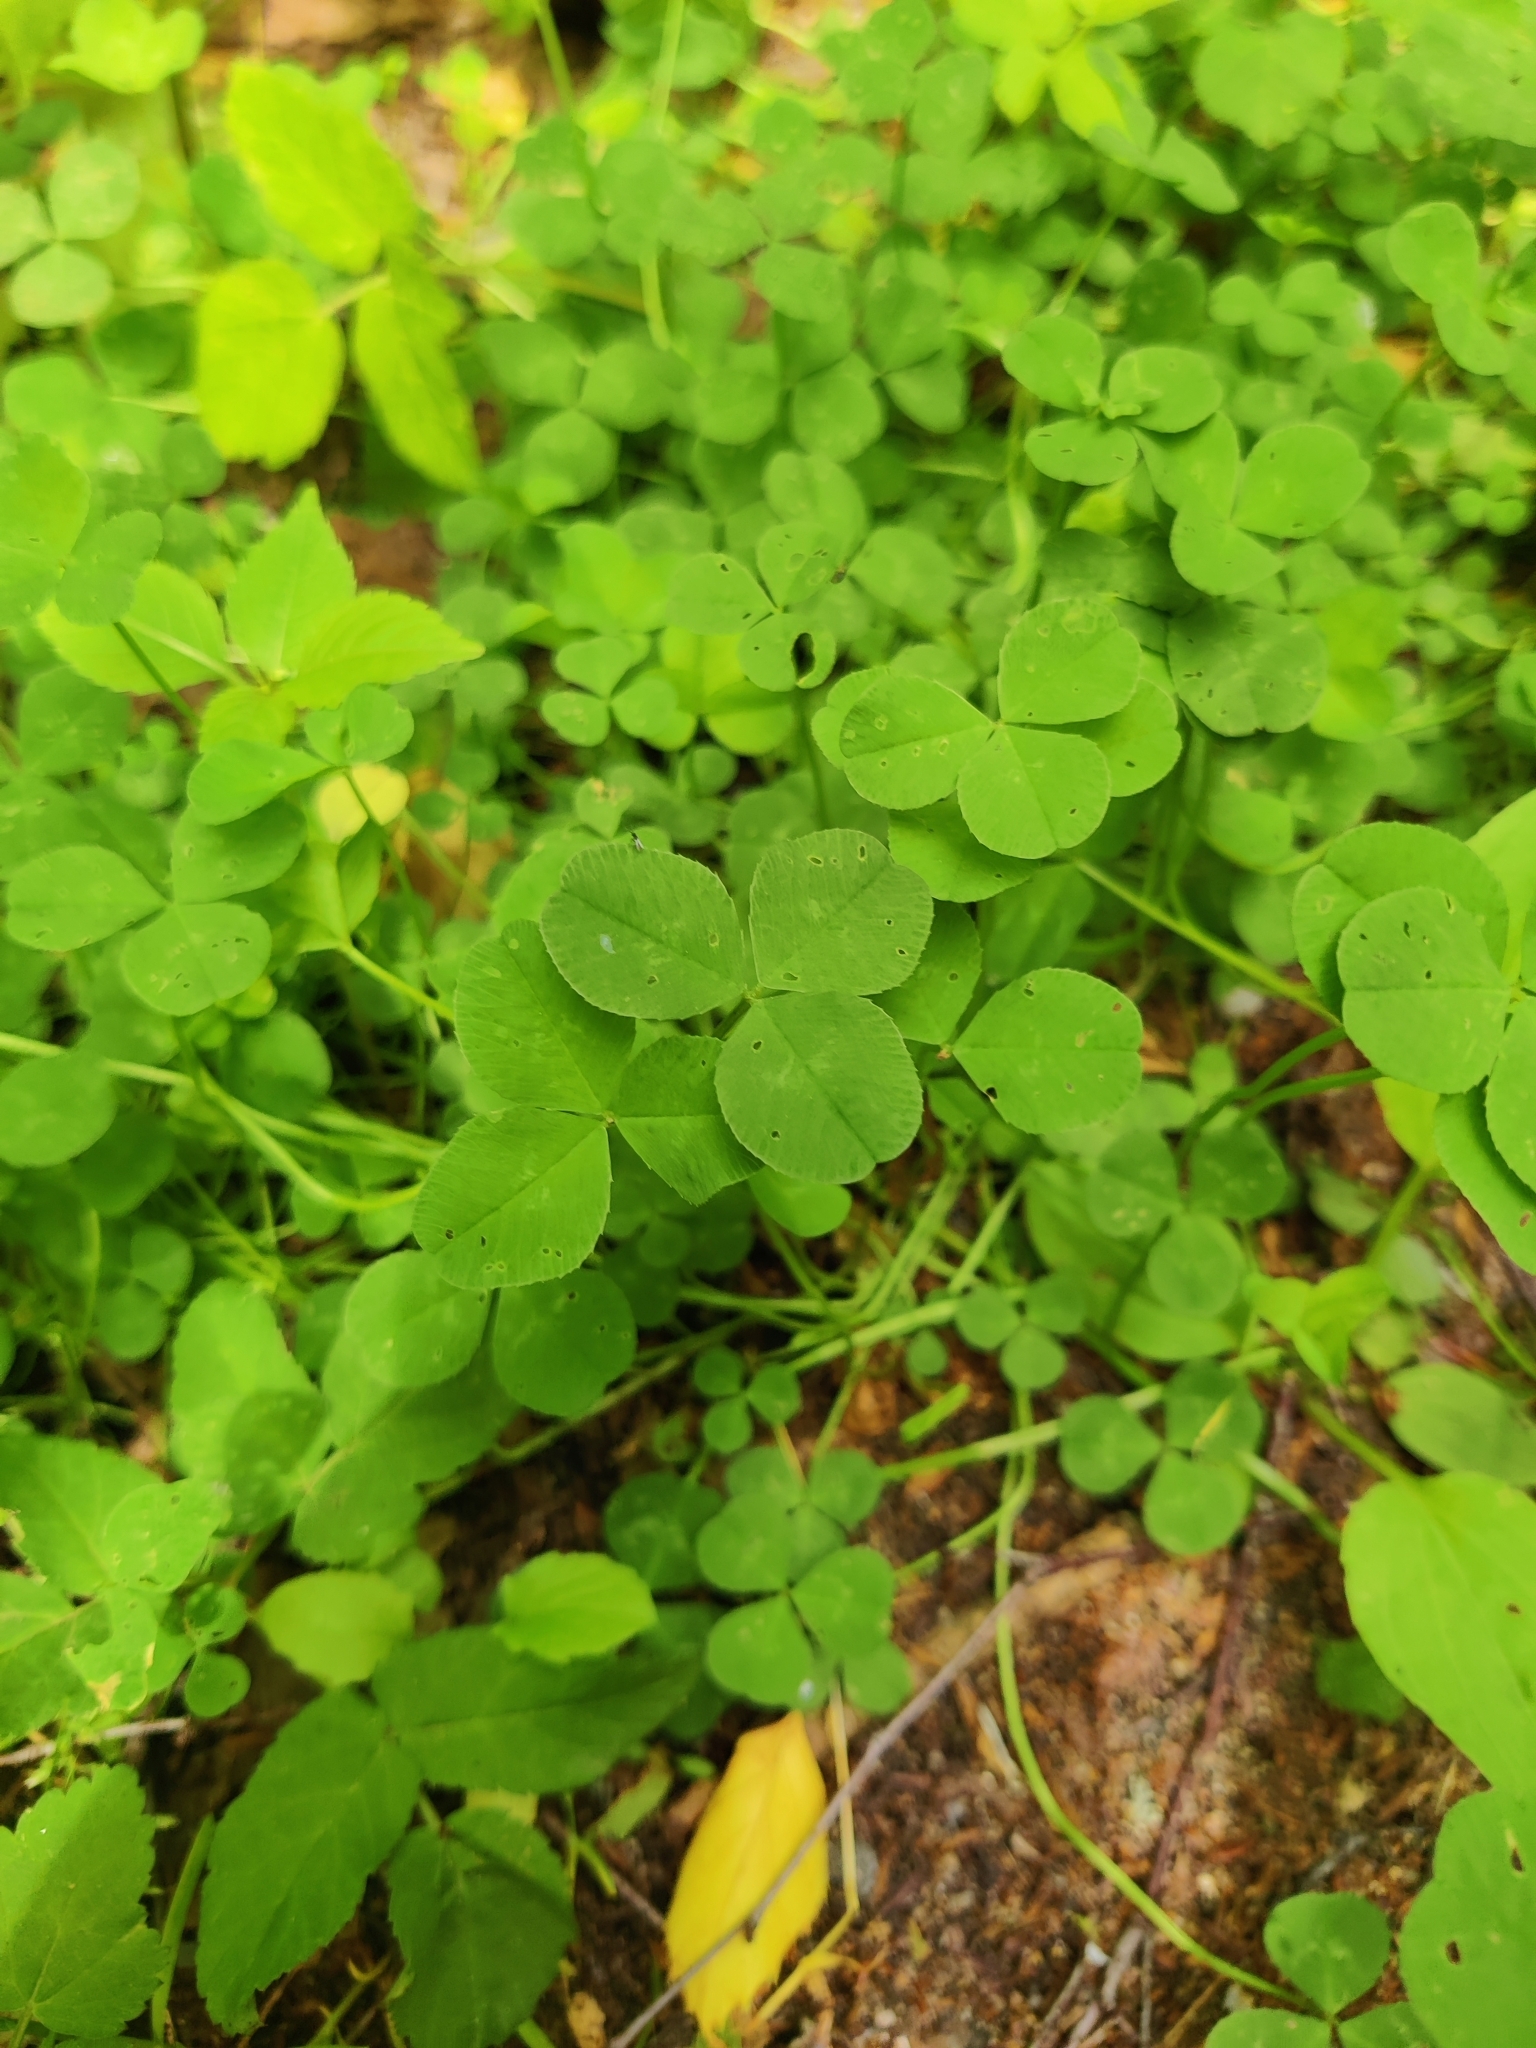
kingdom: Plantae
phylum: Tracheophyta
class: Magnoliopsida
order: Fabales
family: Fabaceae
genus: Trifolium
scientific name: Trifolium repens
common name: White clover
